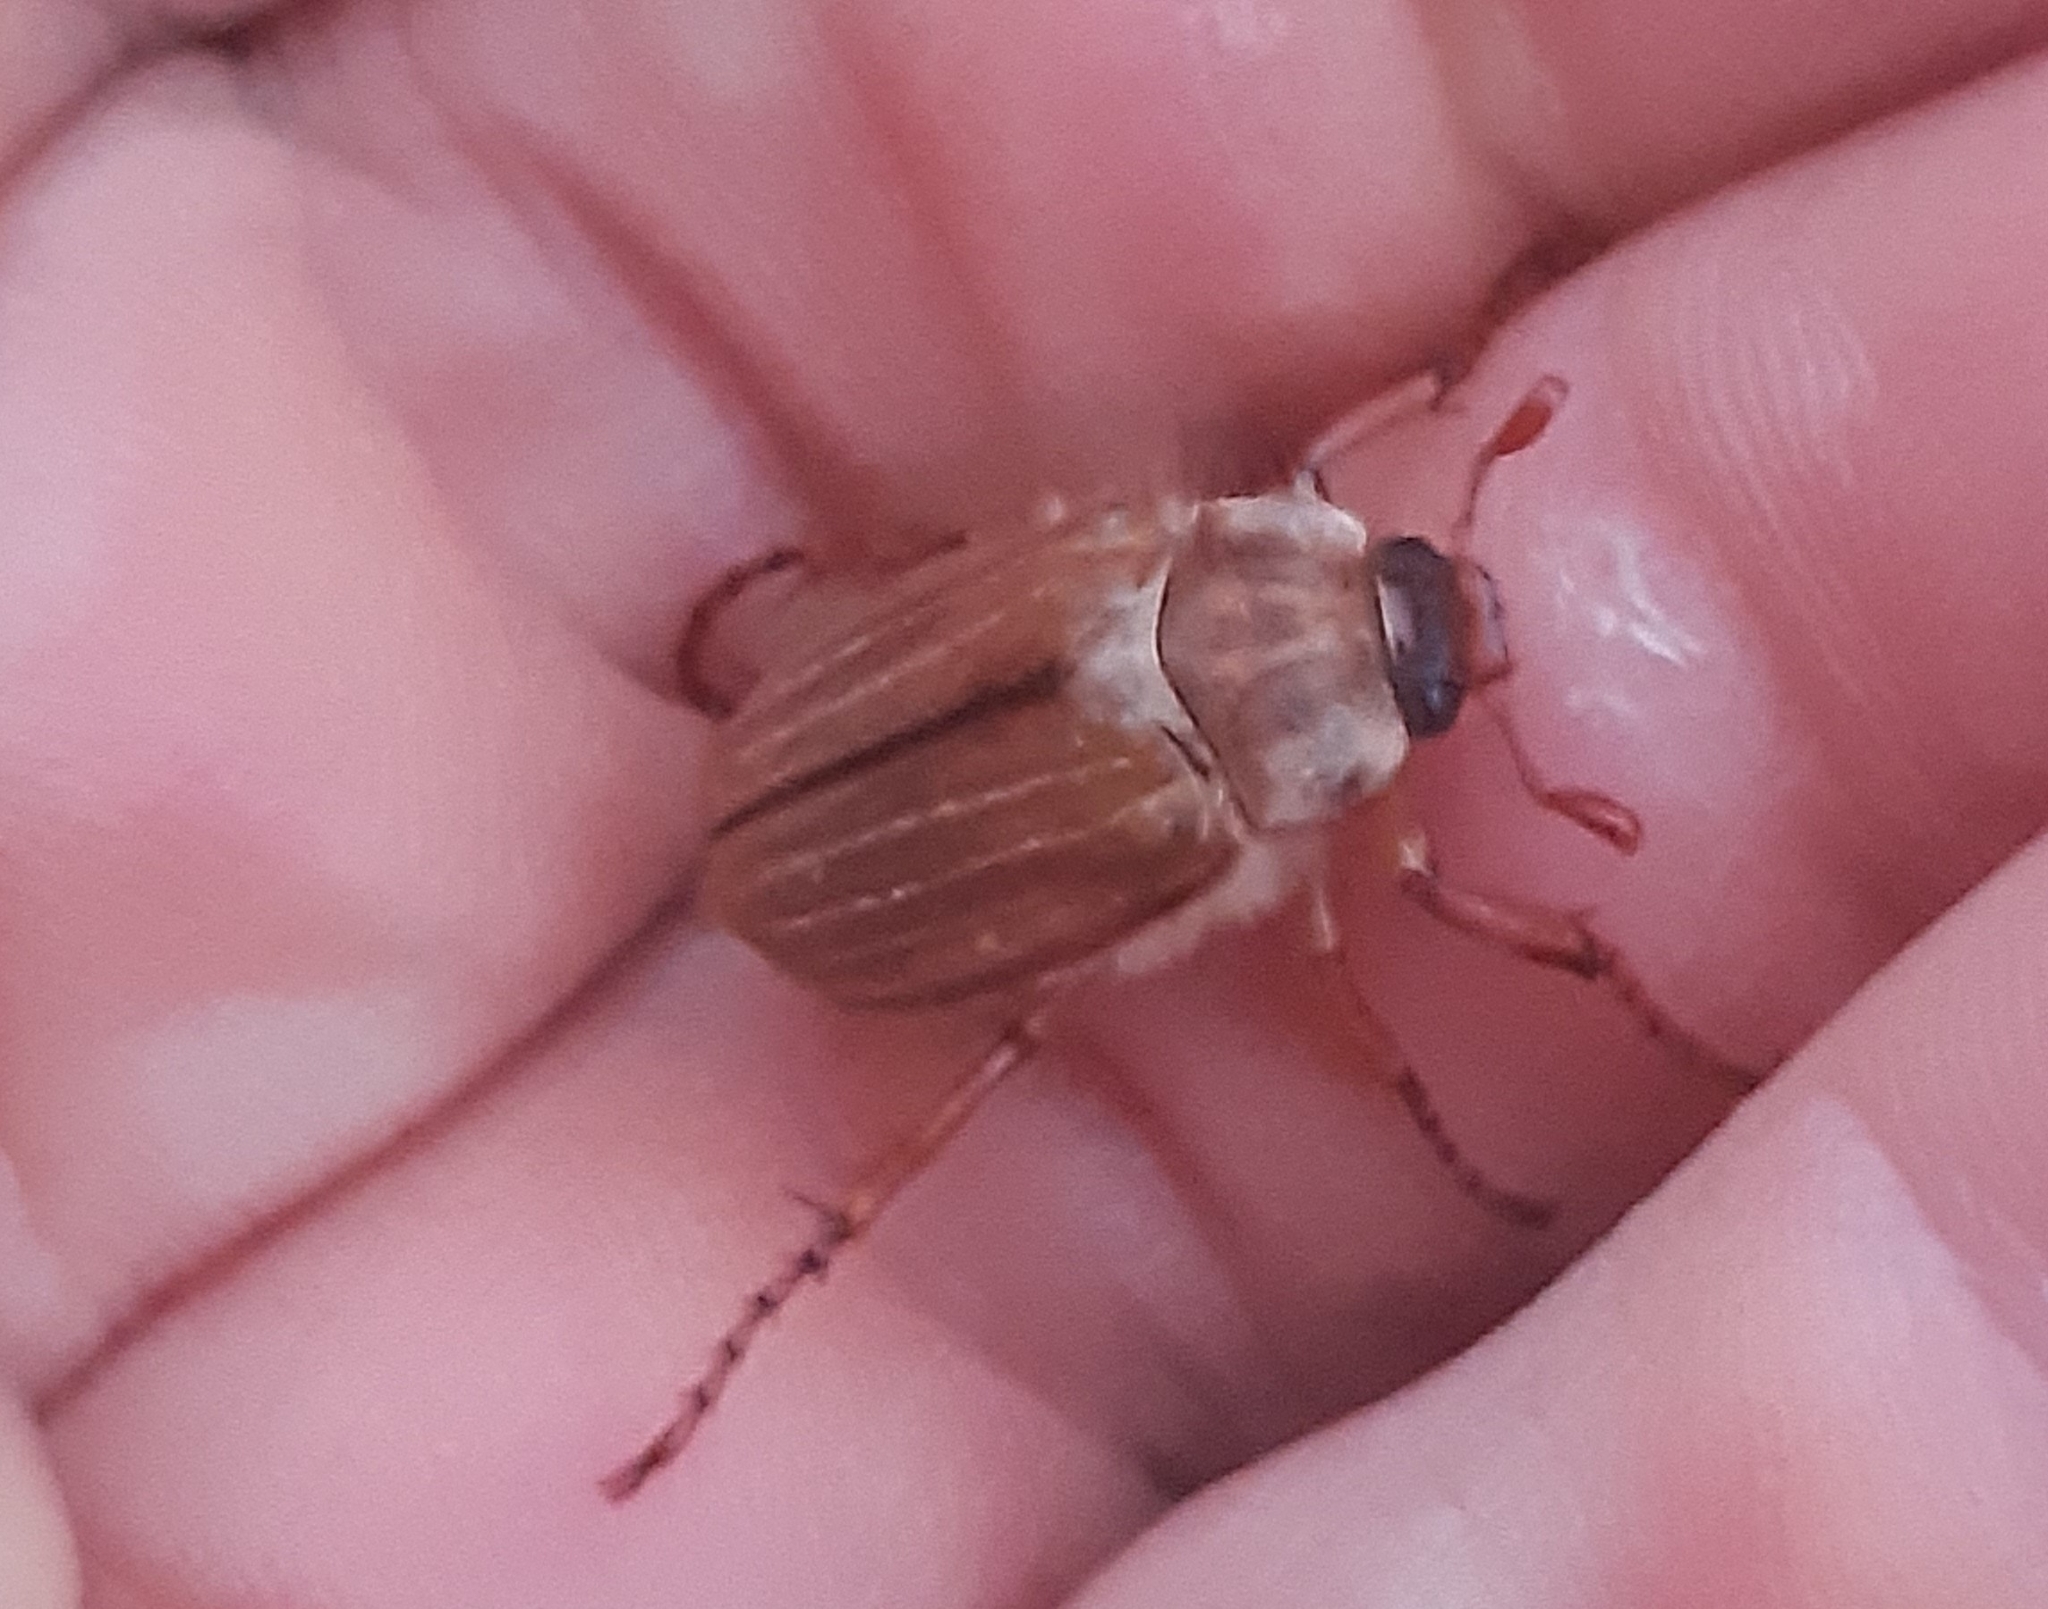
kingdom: Animalia
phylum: Arthropoda
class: Insecta
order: Coleoptera
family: Scarabaeidae
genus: Amphimallon
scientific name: Amphimallon solstitiale
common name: Summer chafer
